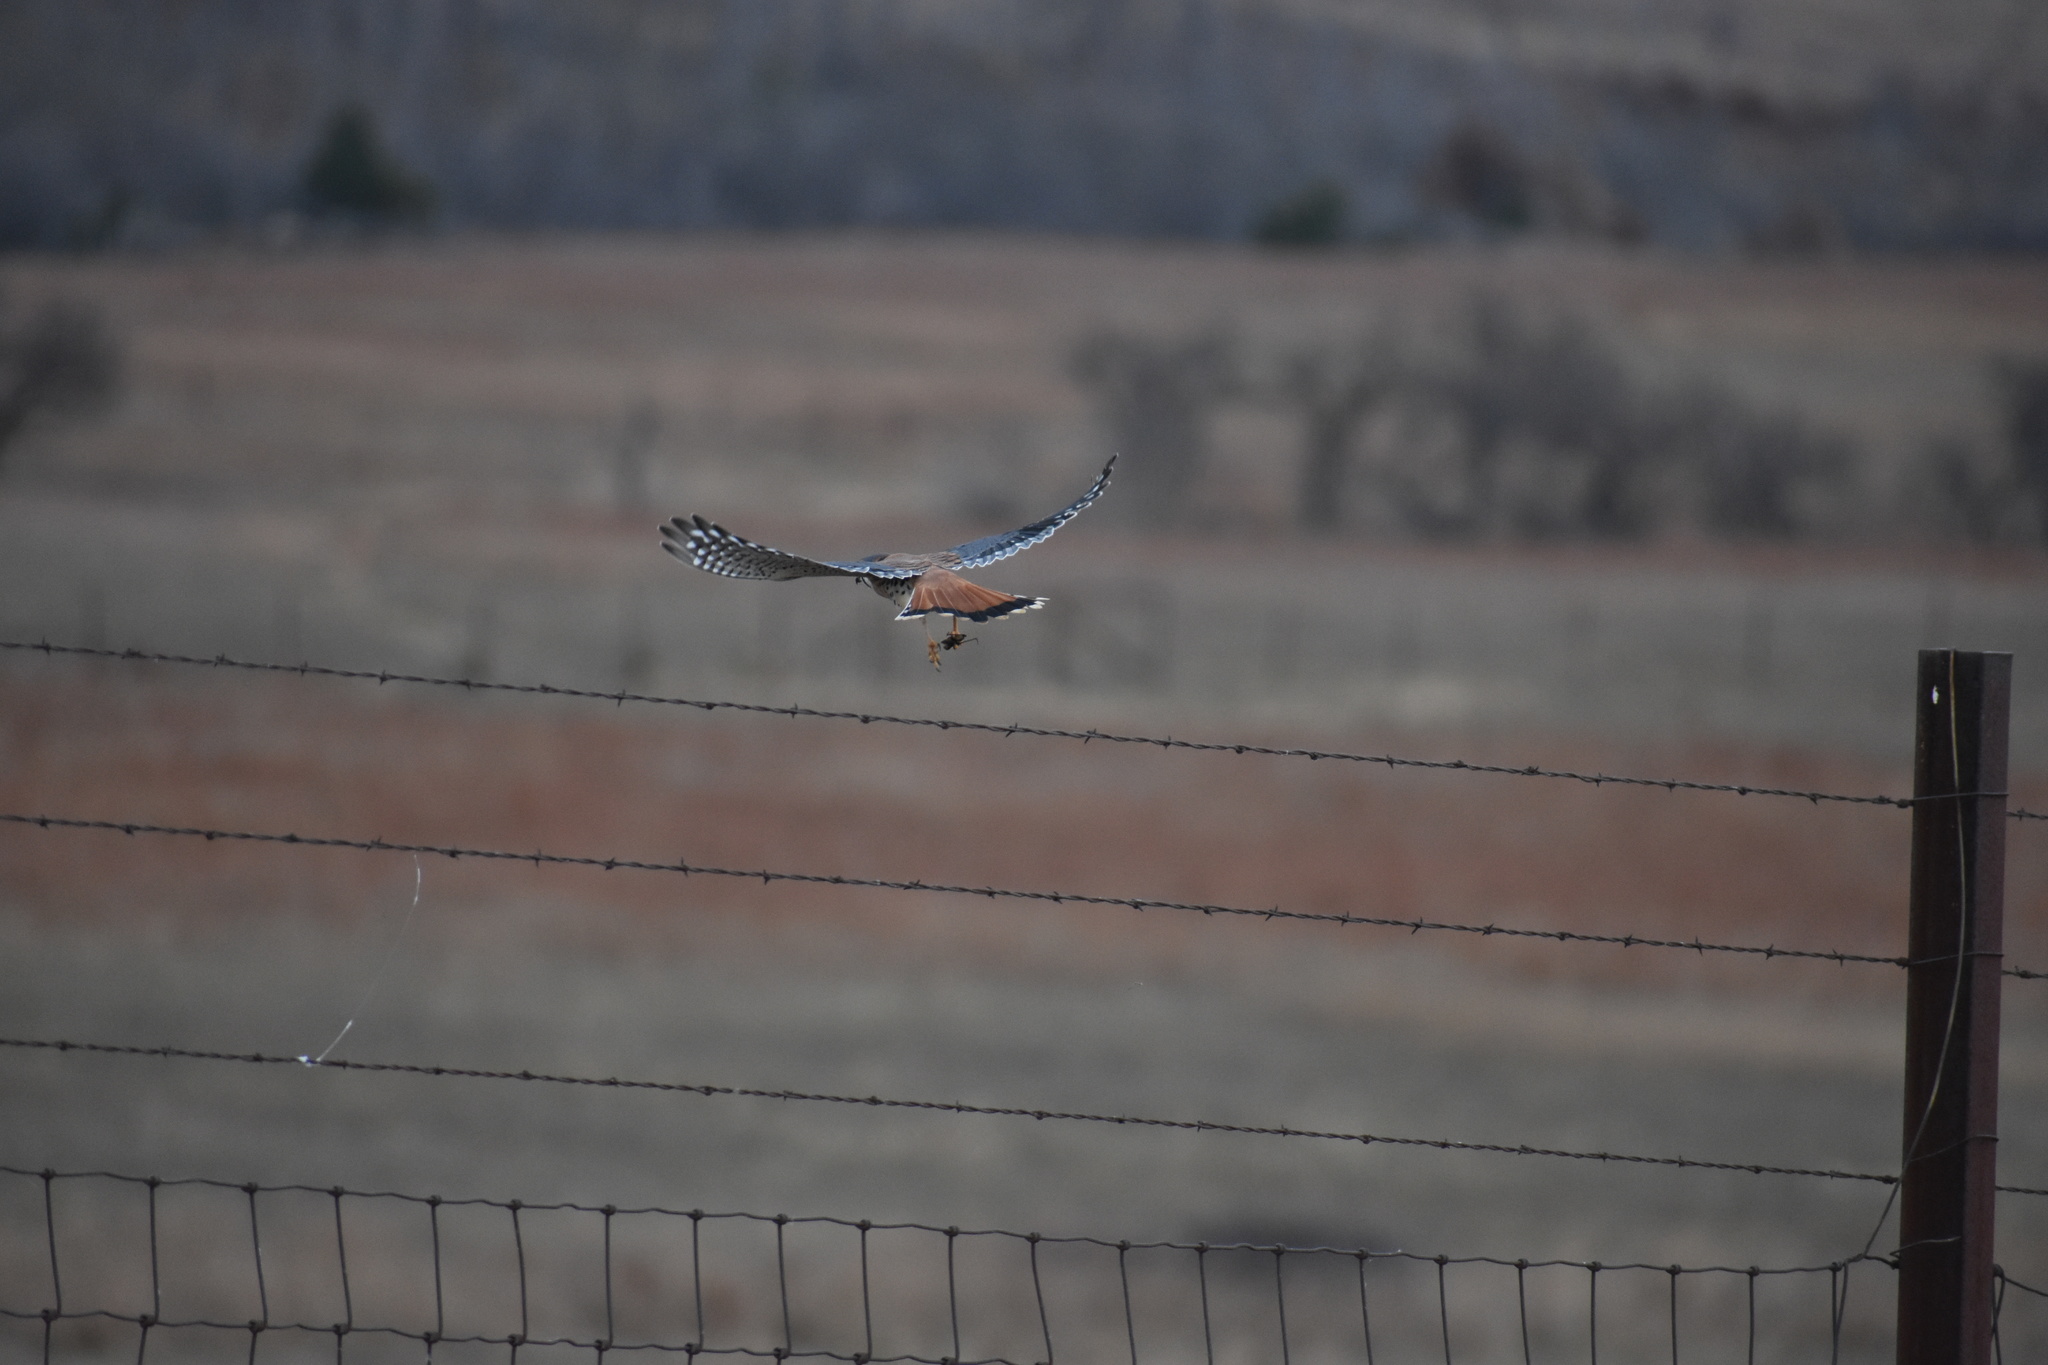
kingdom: Animalia
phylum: Chordata
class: Aves
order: Falconiformes
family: Falconidae
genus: Falco
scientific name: Falco sparverius
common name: American kestrel
